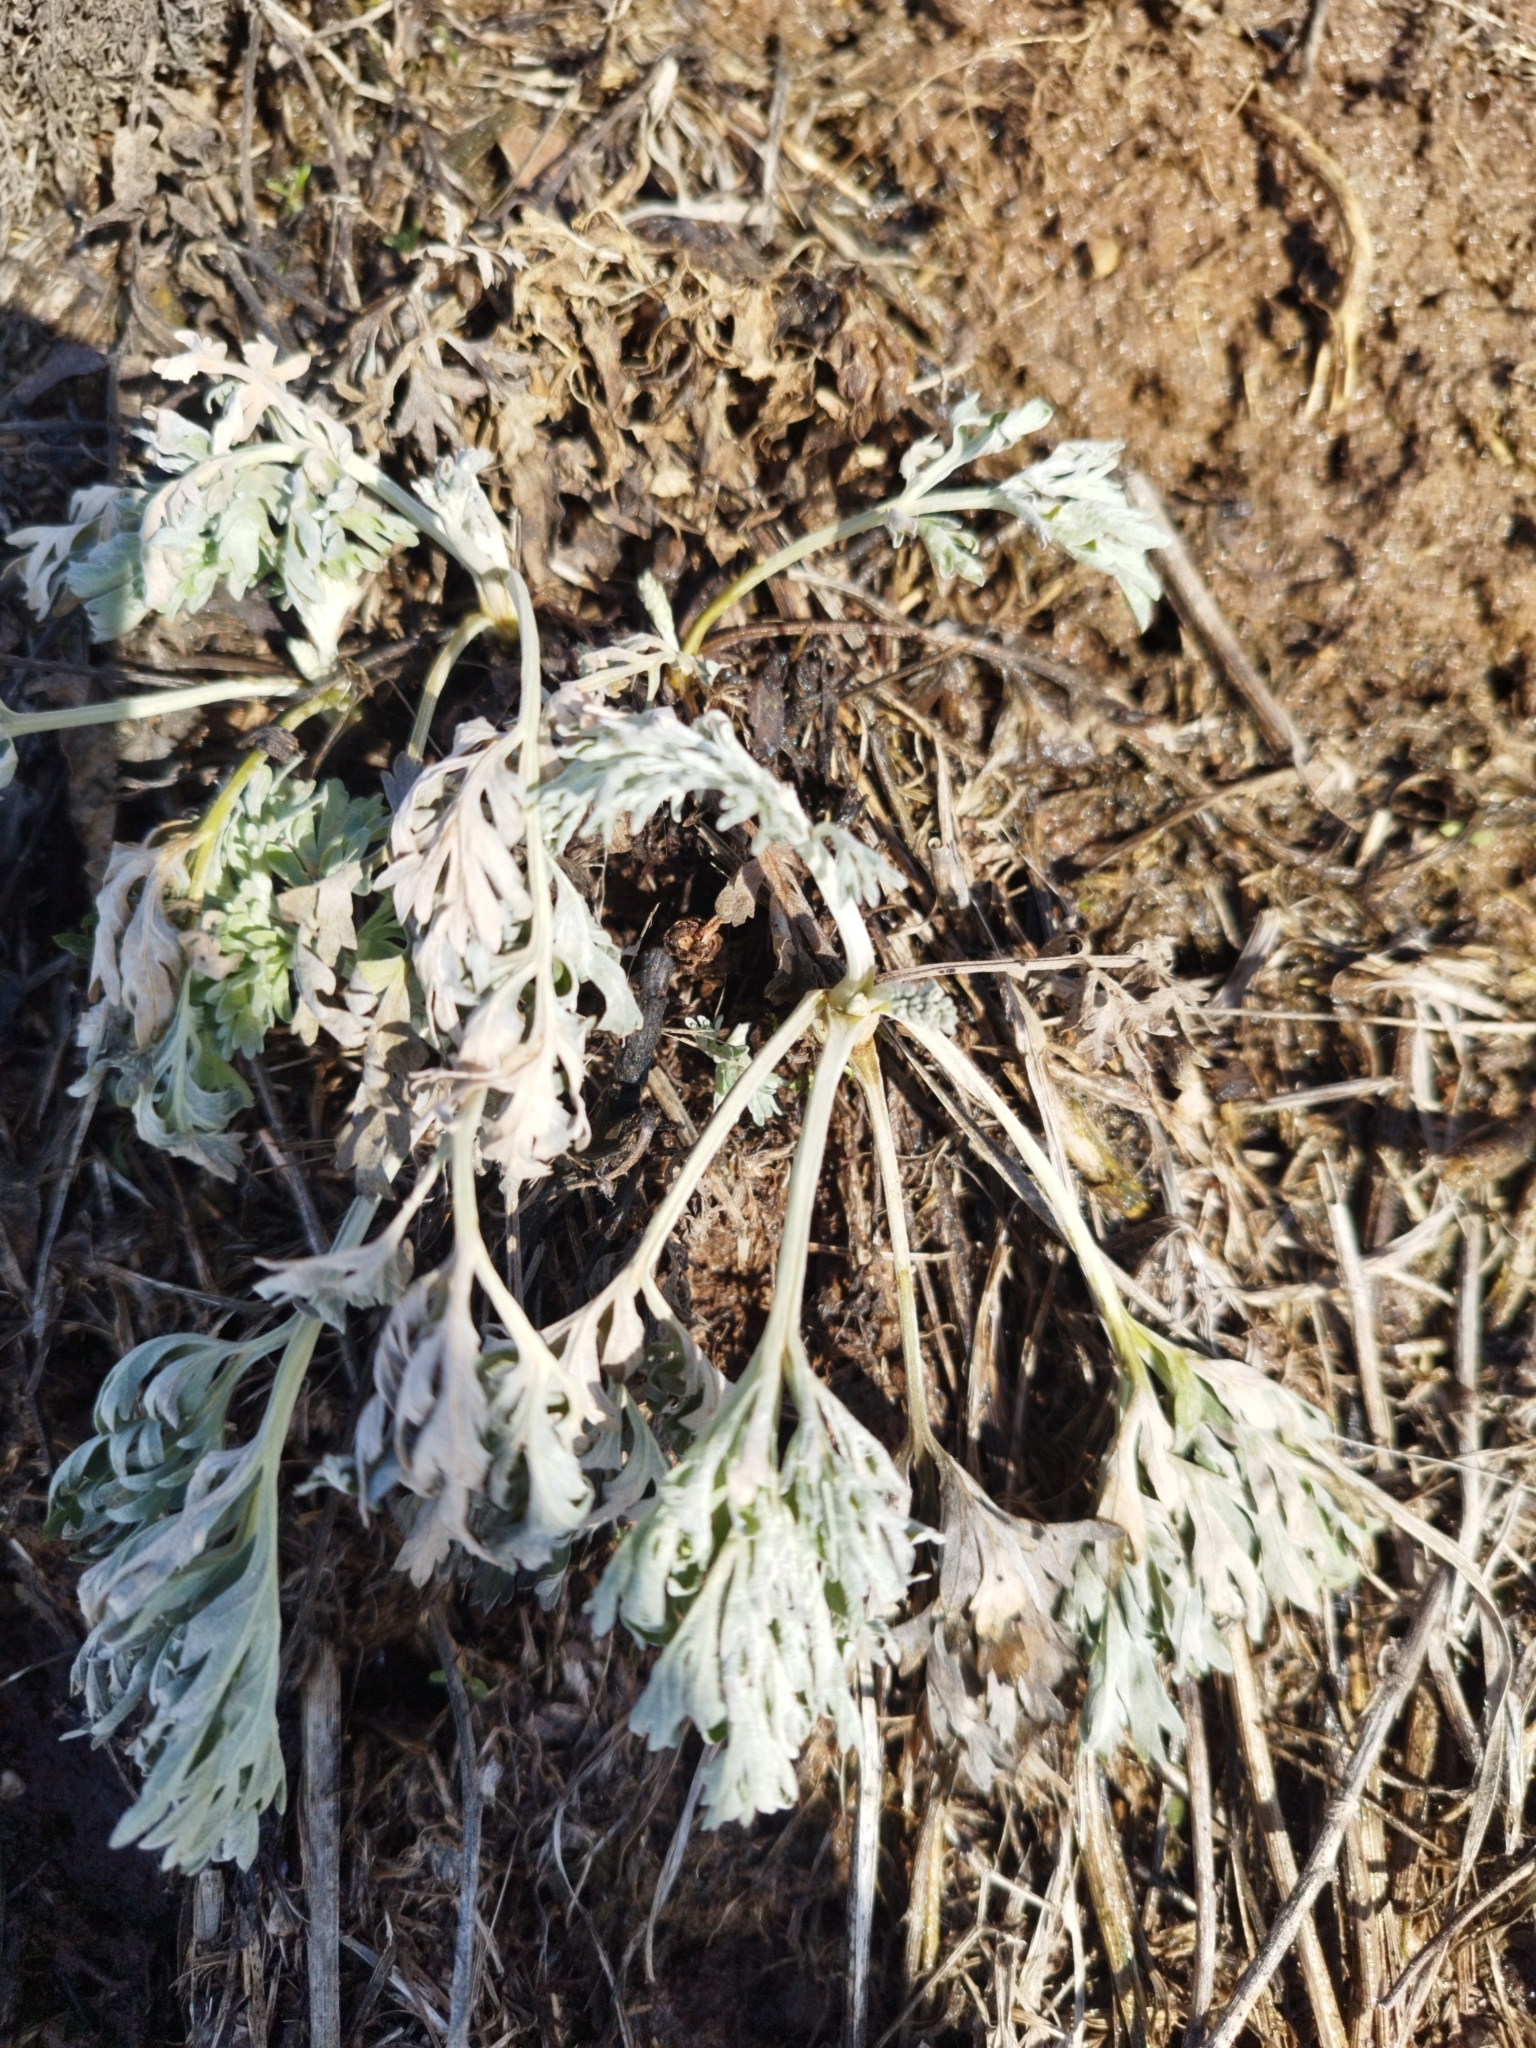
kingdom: Plantae
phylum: Tracheophyta
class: Magnoliopsida
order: Asterales
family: Asteraceae
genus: Artemisia
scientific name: Artemisia absinthium
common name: Wormwood
